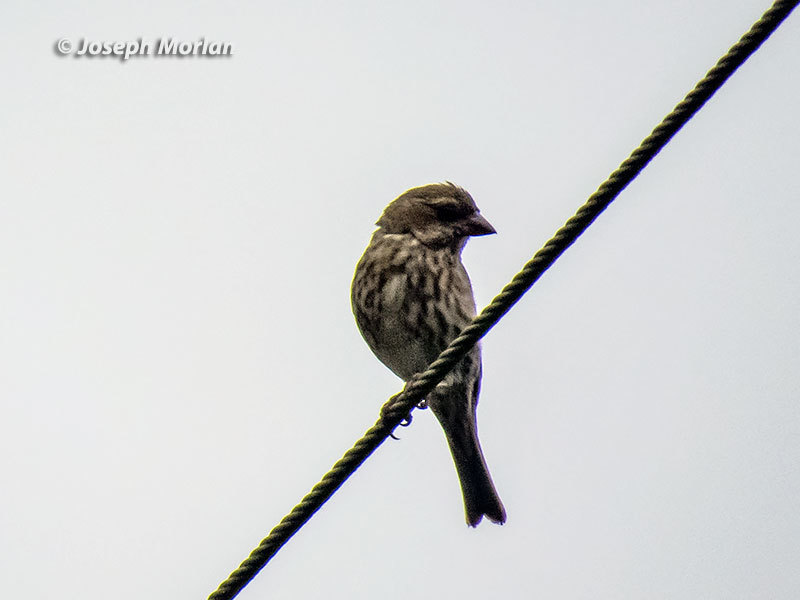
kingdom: Animalia
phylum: Chordata
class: Aves
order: Passeriformes
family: Fringillidae
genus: Haemorhous
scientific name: Haemorhous purpureus
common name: Purple finch
